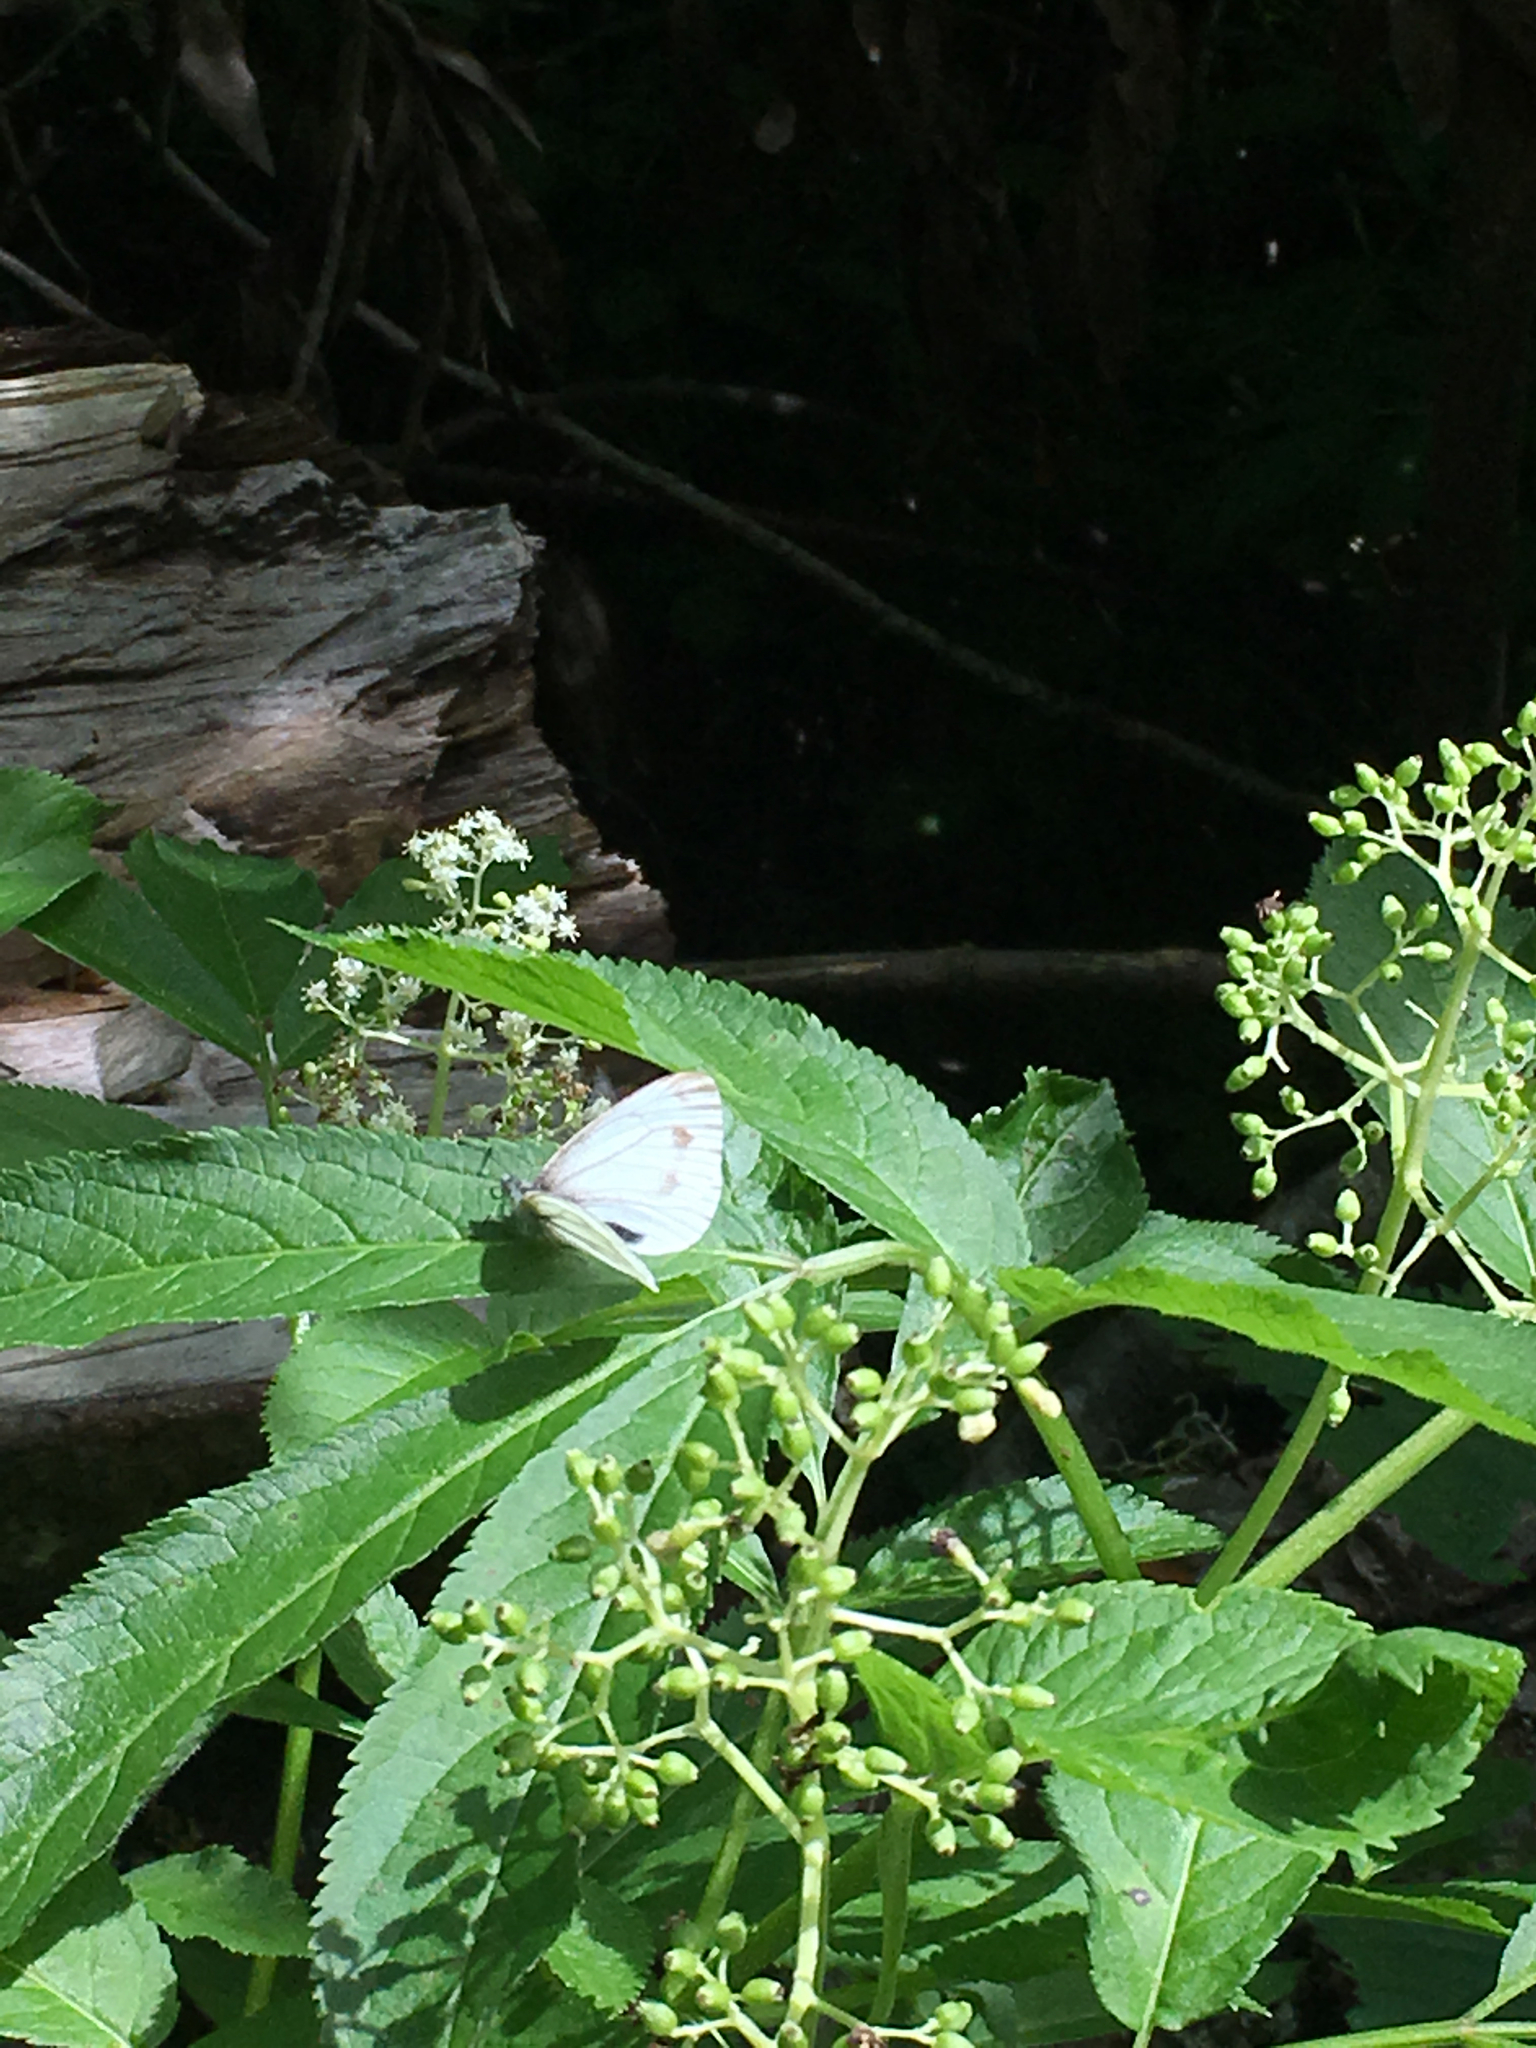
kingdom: Animalia
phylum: Arthropoda
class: Insecta
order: Lepidoptera
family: Pieridae
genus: Pieris
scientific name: Pieris marginalis
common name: Margined white
